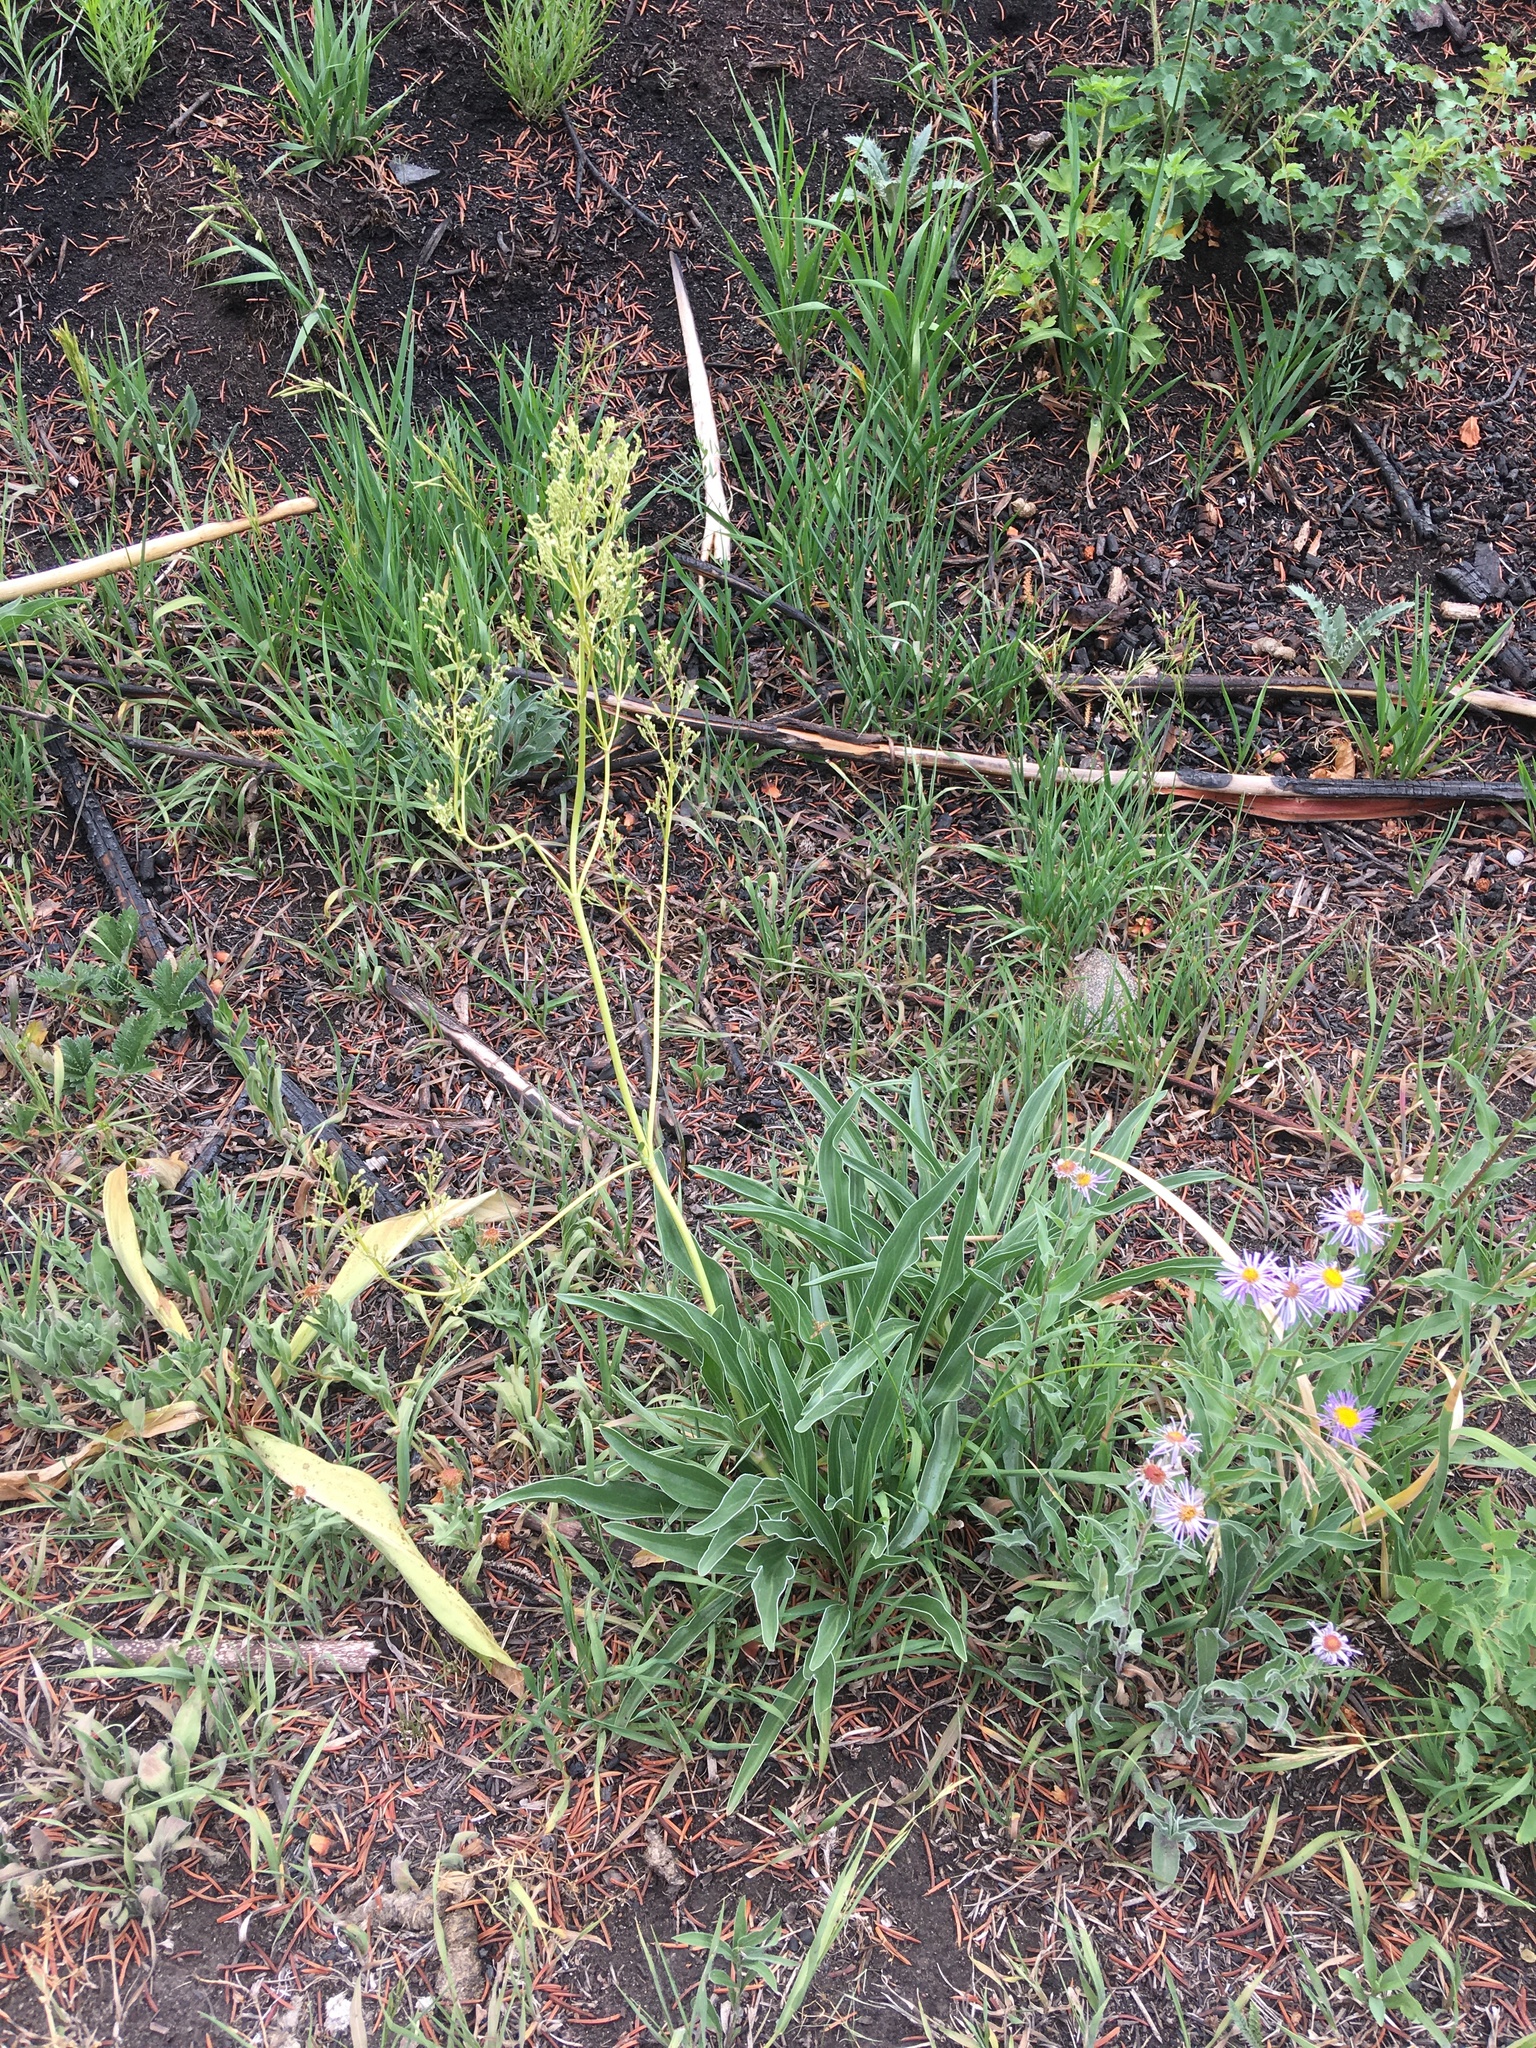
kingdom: Plantae
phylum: Tracheophyta
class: Magnoliopsida
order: Dipsacales
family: Caprifoliaceae
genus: Valeriana
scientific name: Valeriana edulis
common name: Taproot valerian
